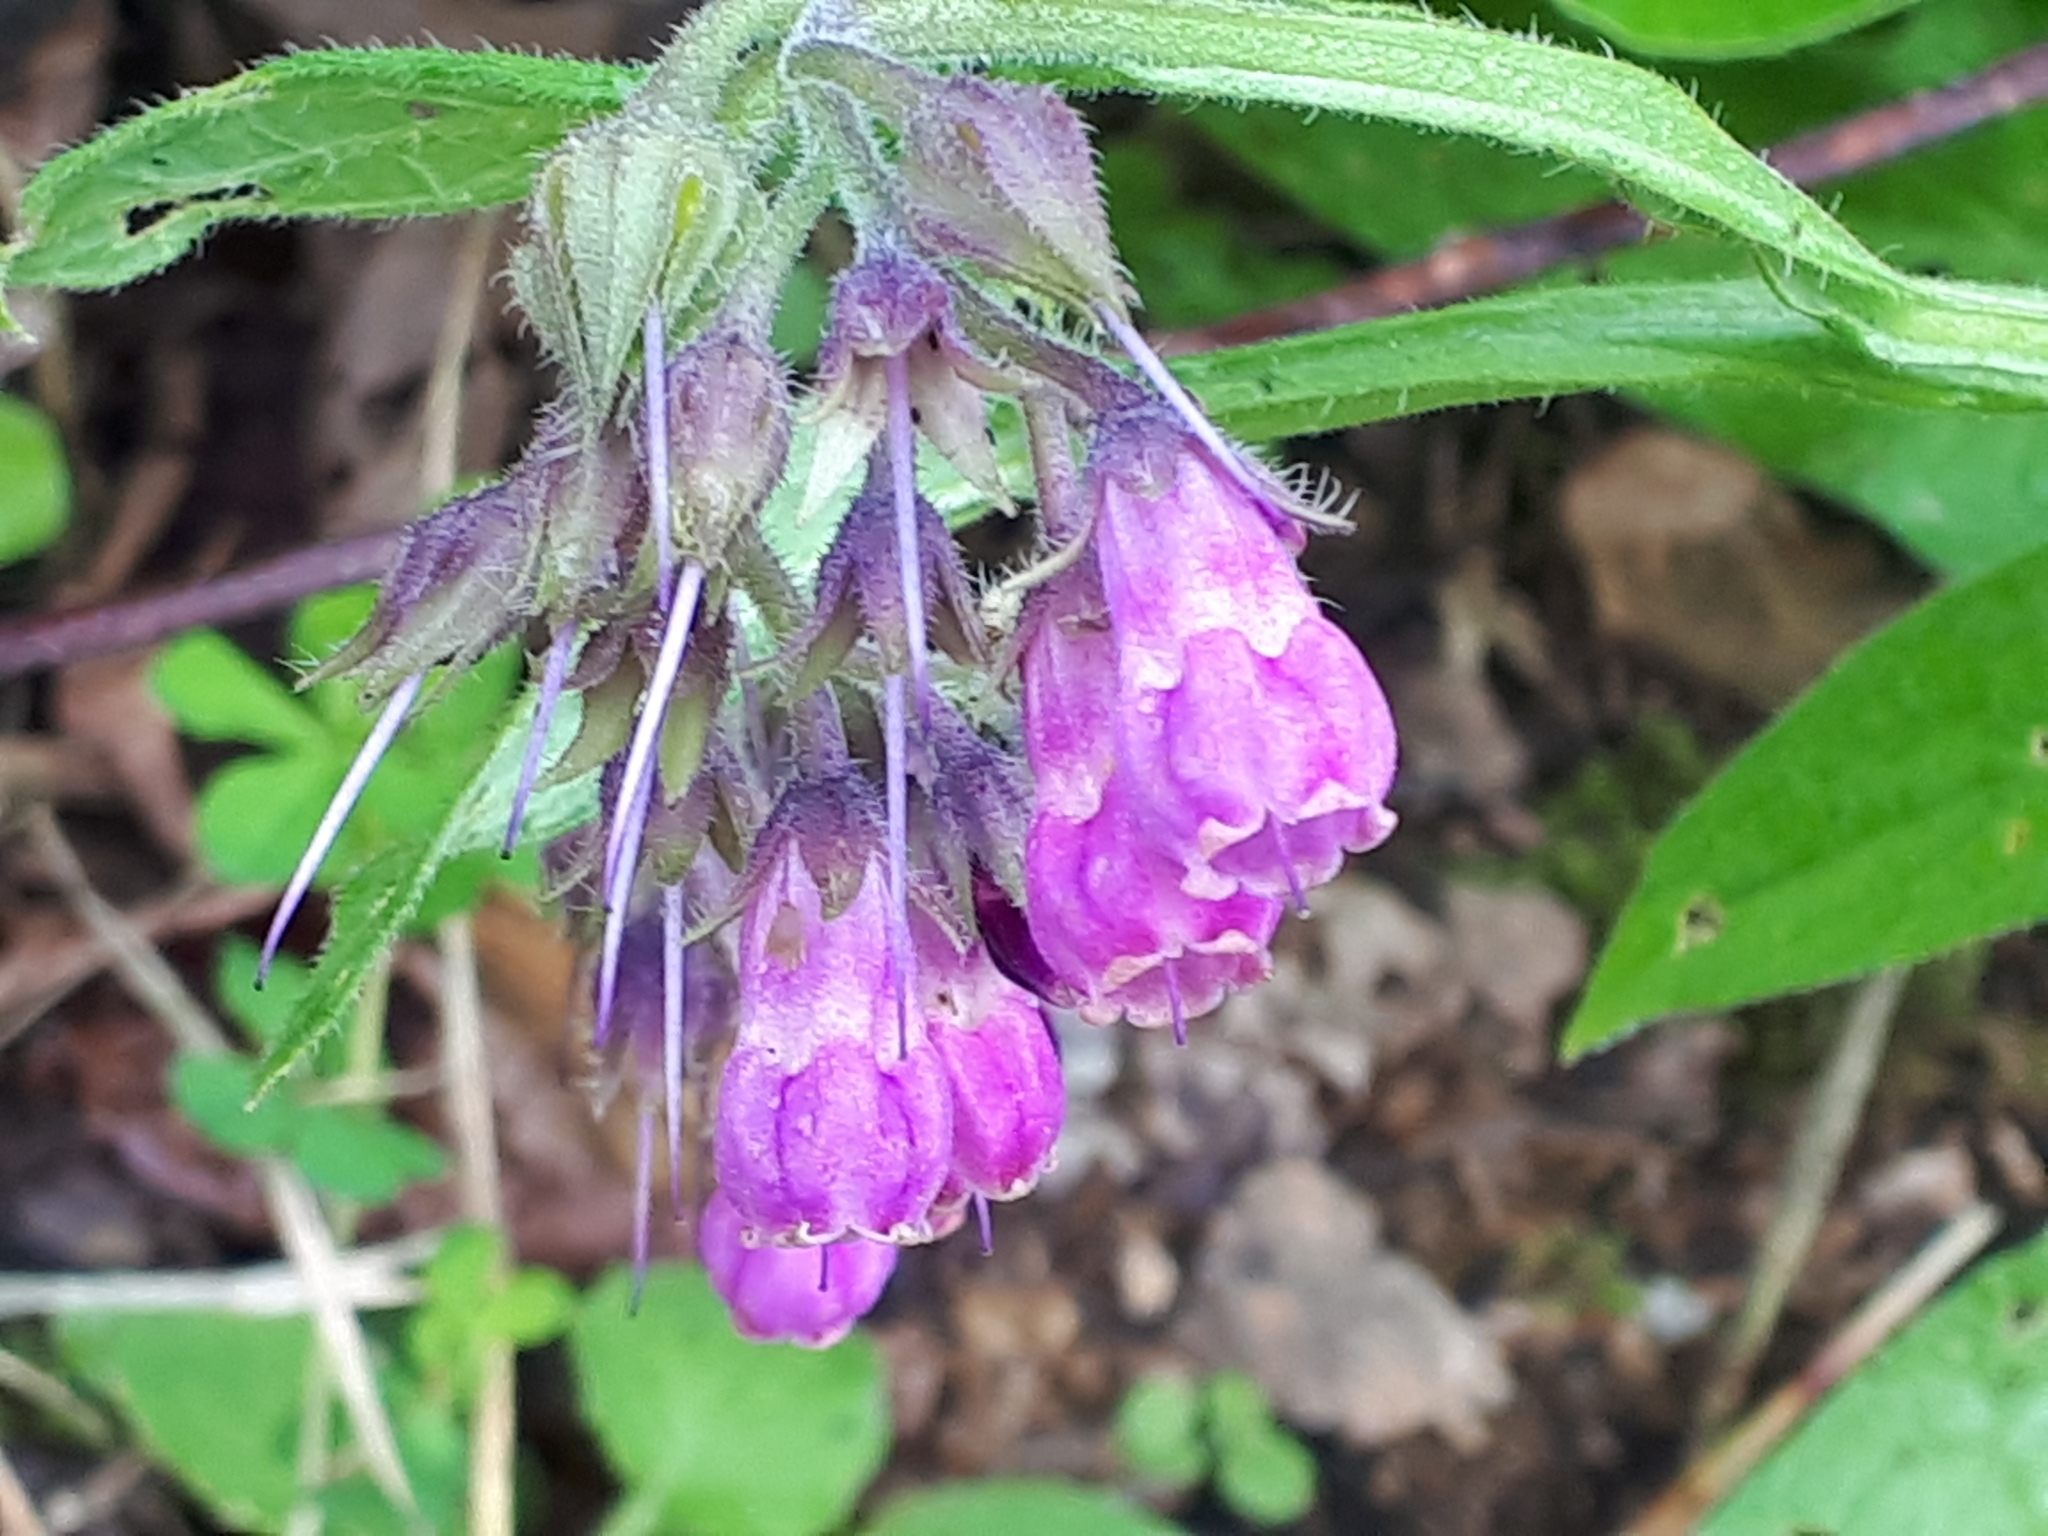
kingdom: Plantae
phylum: Tracheophyta
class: Magnoliopsida
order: Boraginales
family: Boraginaceae
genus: Symphytum
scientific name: Symphytum officinale
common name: Common comfrey
